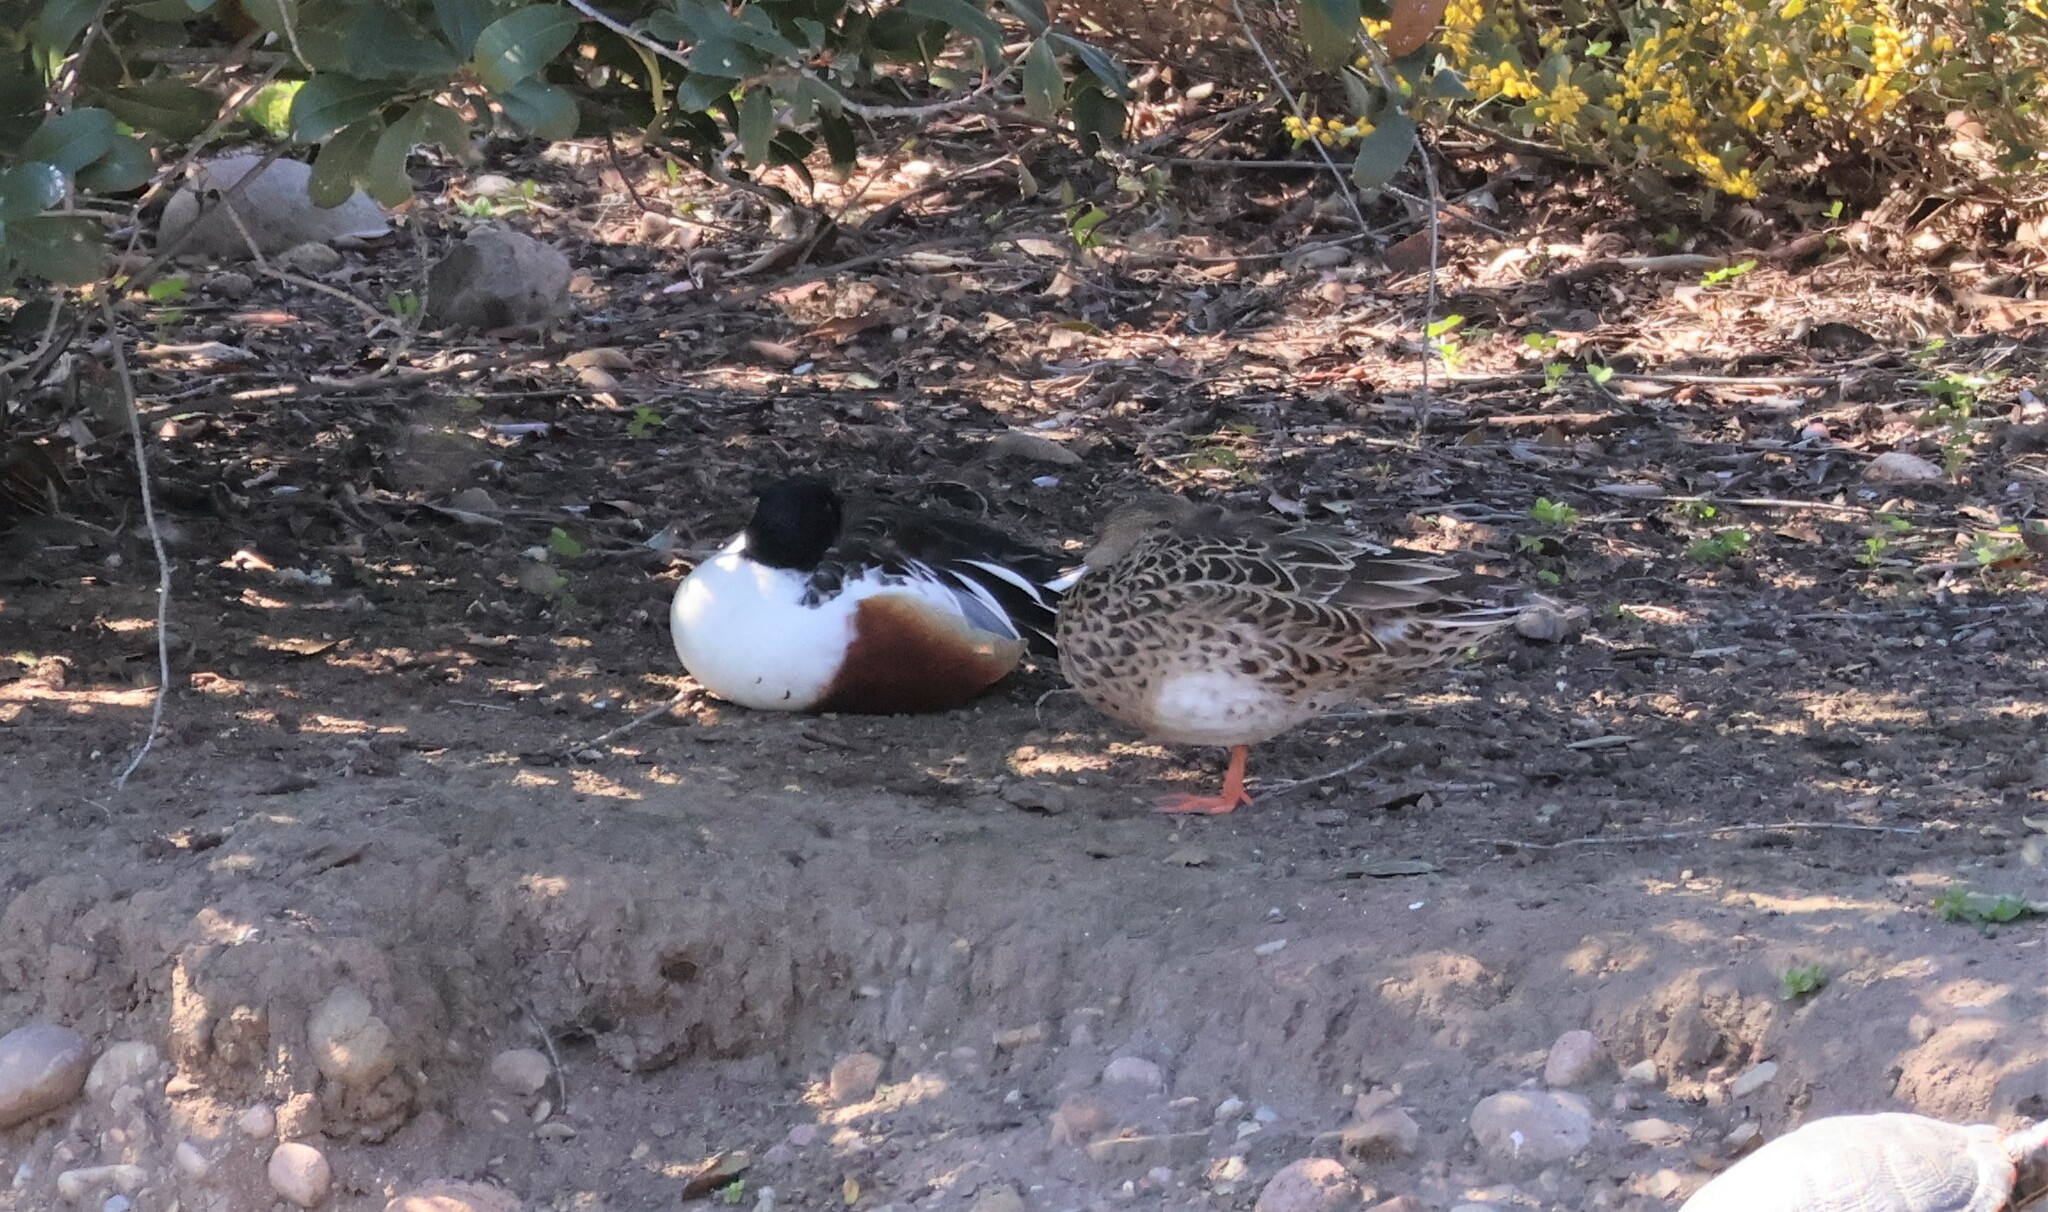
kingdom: Animalia
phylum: Chordata
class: Aves
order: Anseriformes
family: Anatidae
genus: Spatula
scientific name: Spatula clypeata
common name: Northern shoveler
